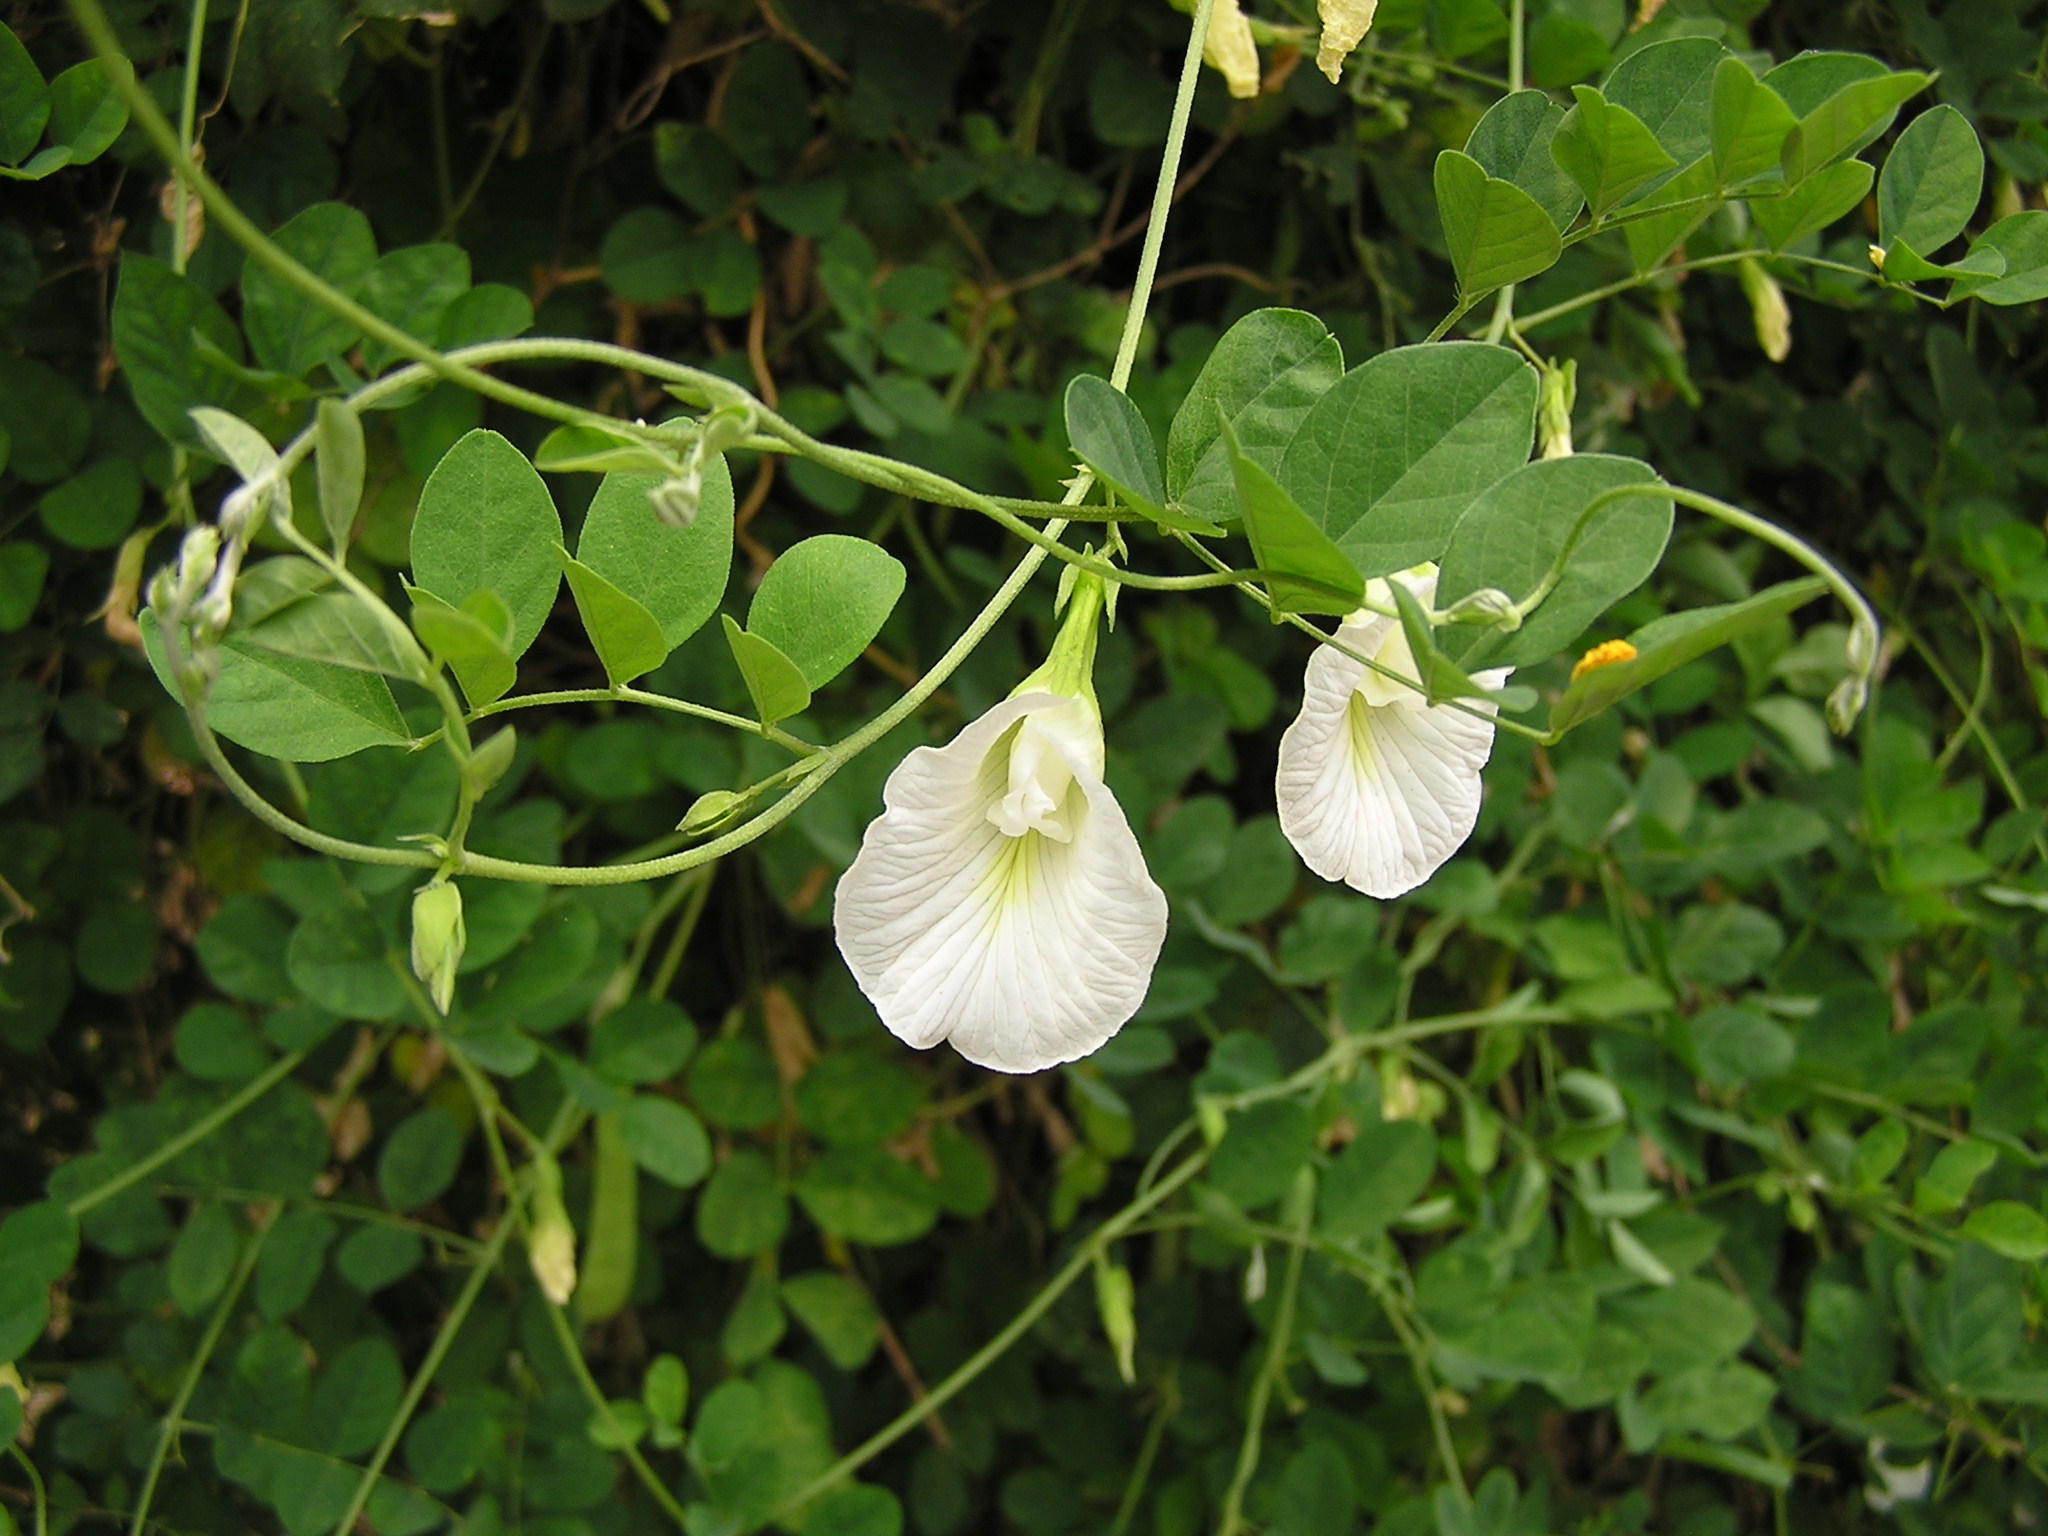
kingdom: Plantae
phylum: Tracheophyta
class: Magnoliopsida
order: Fabales
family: Fabaceae
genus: Clitoria
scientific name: Clitoria ternatea
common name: Asian pigeonwings
